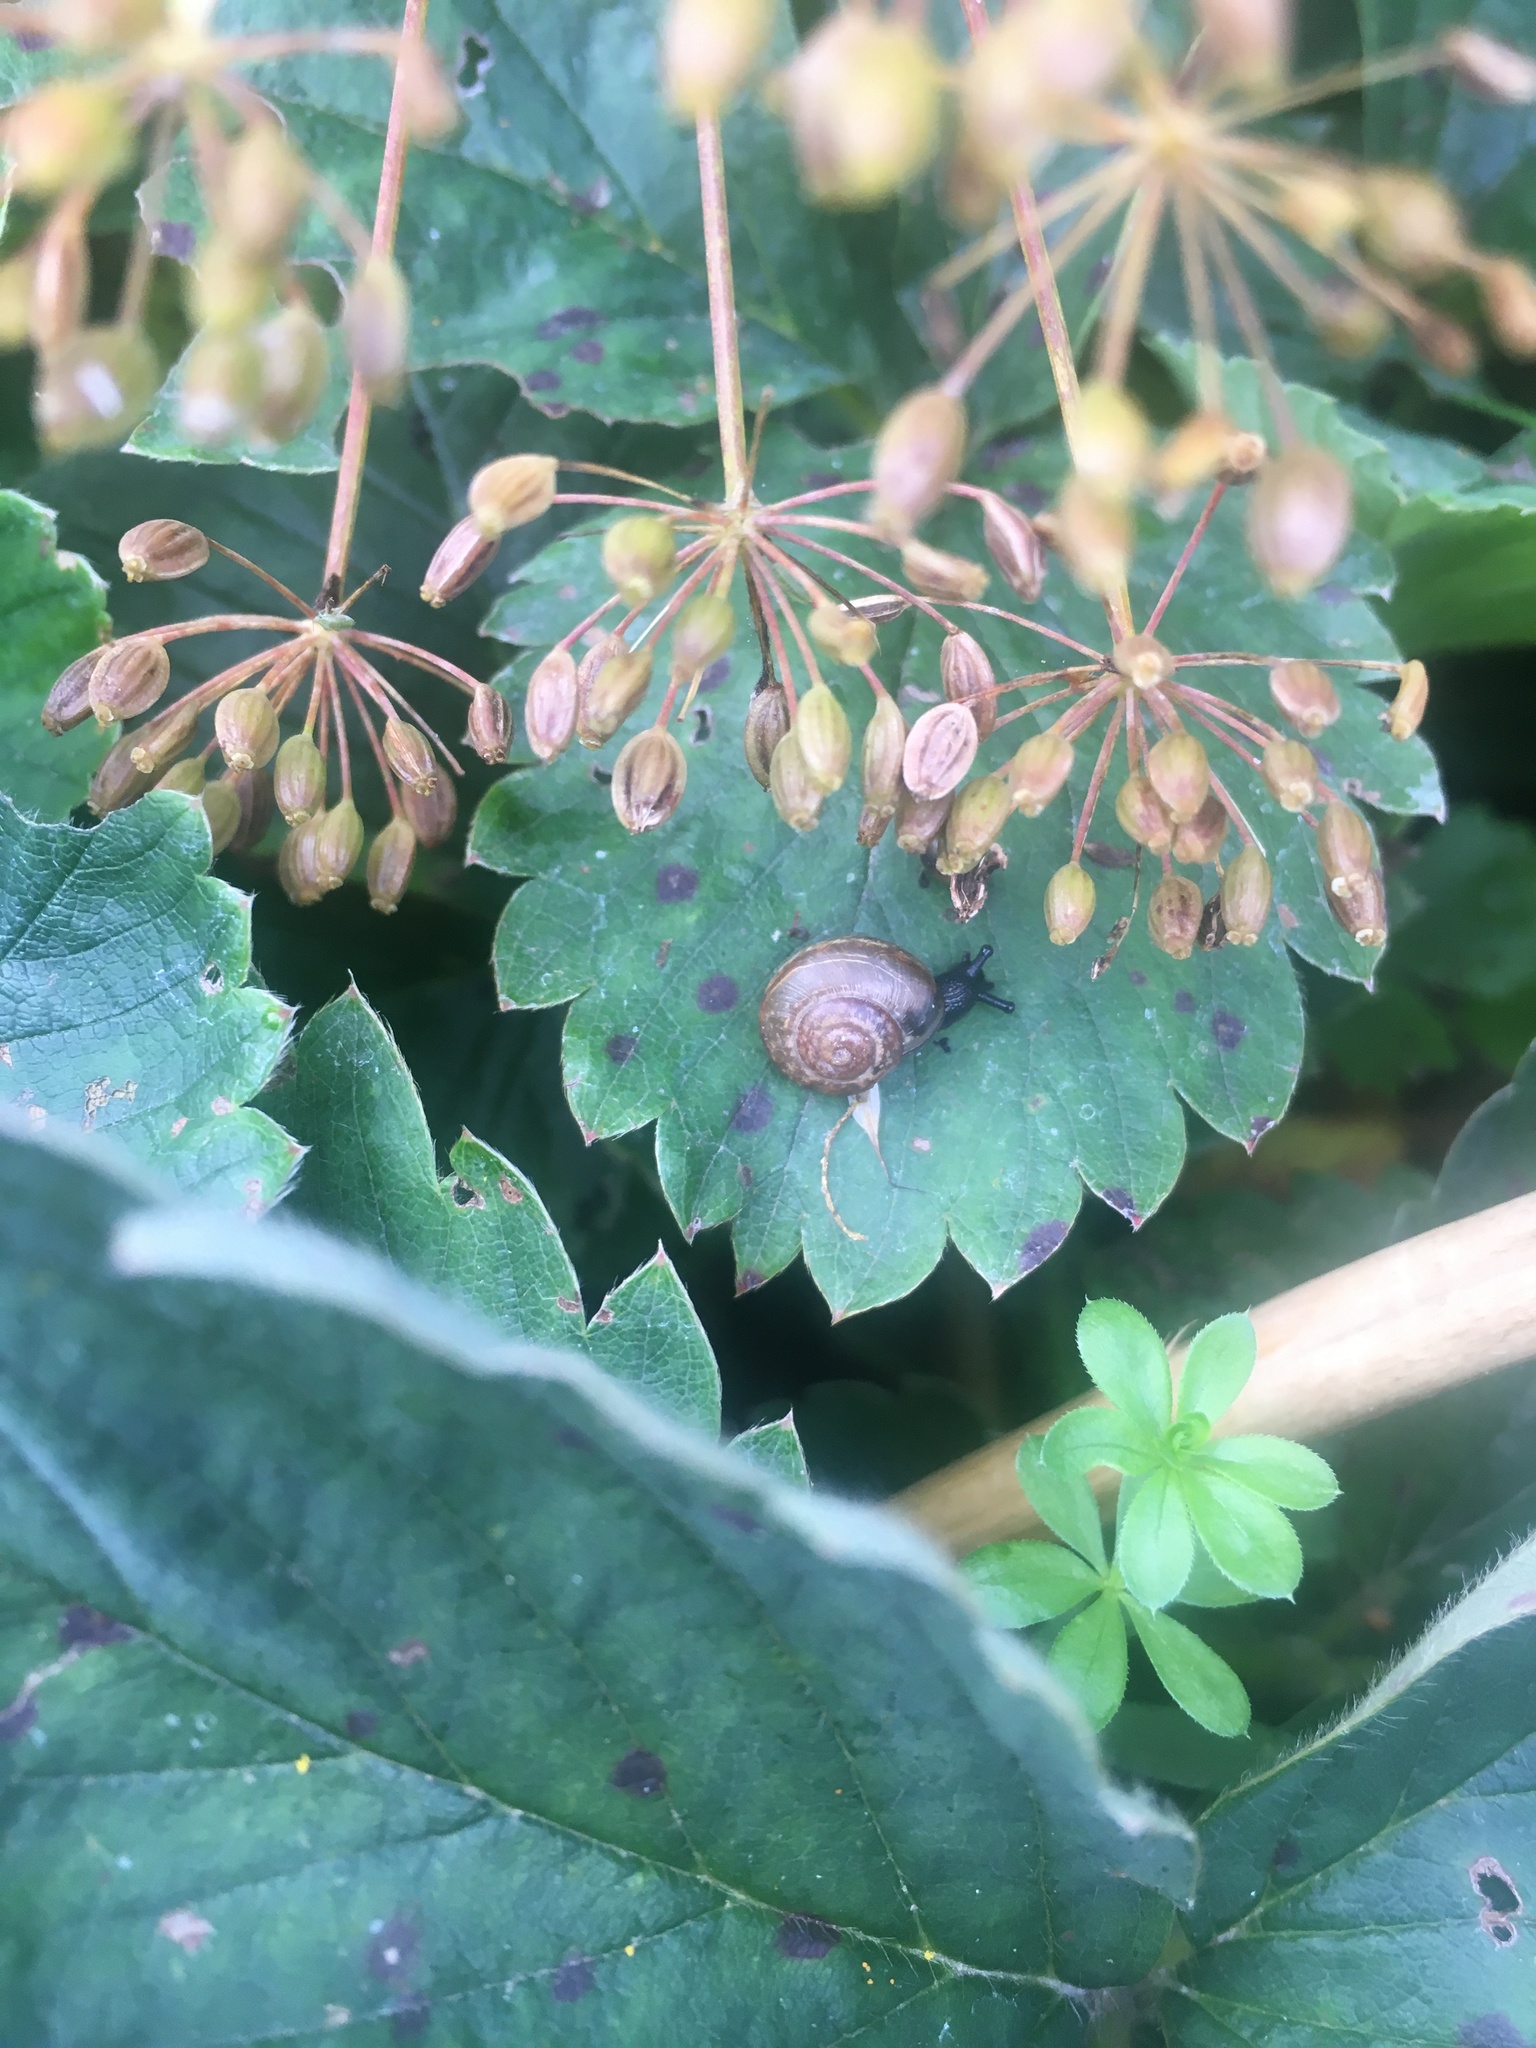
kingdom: Animalia
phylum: Mollusca
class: Gastropoda
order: Stylommatophora
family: Helicidae
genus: Arianta
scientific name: Arianta arbustorum
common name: Copse snail
